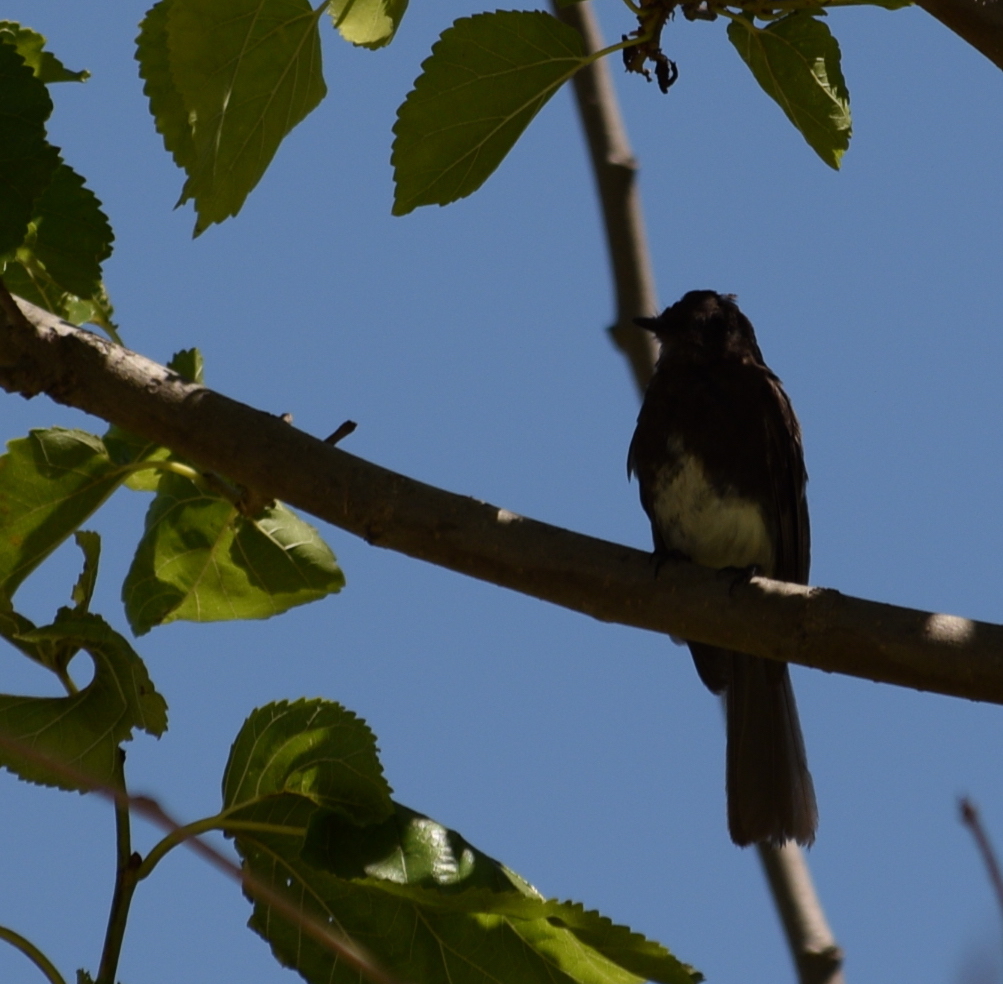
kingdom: Animalia
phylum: Chordata
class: Aves
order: Passeriformes
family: Tyrannidae
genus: Sayornis
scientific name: Sayornis nigricans
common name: Black phoebe
